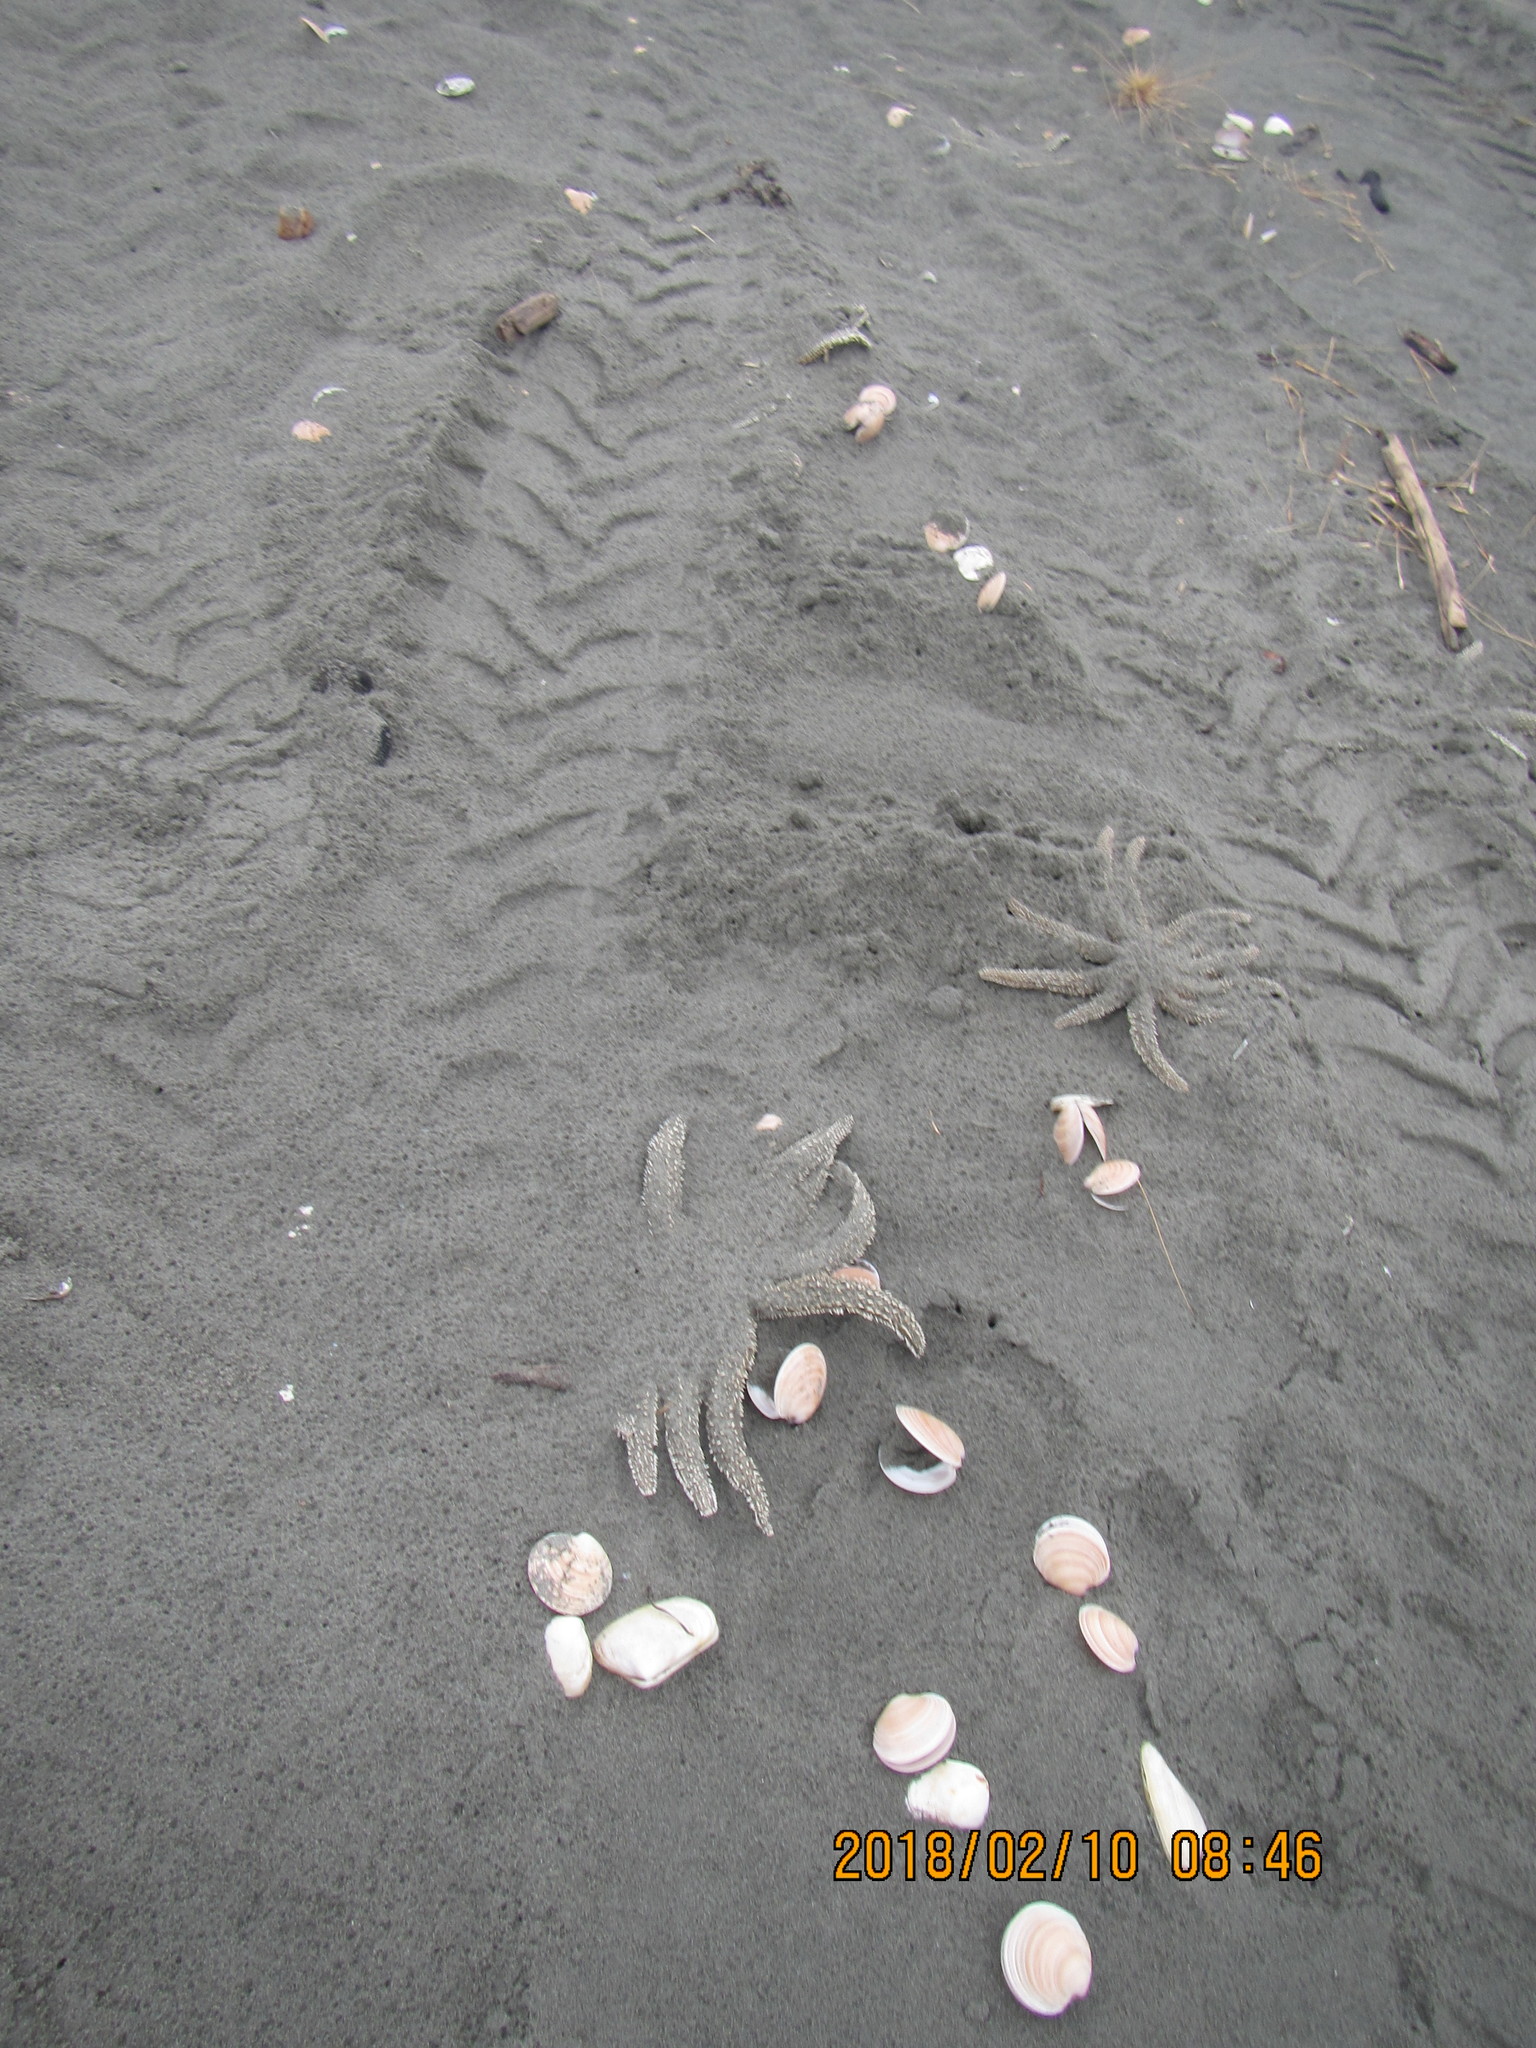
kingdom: Animalia
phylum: Echinodermata
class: Asteroidea
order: Forcipulatida
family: Asteriidae
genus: Coscinasterias
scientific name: Coscinasterias muricata
